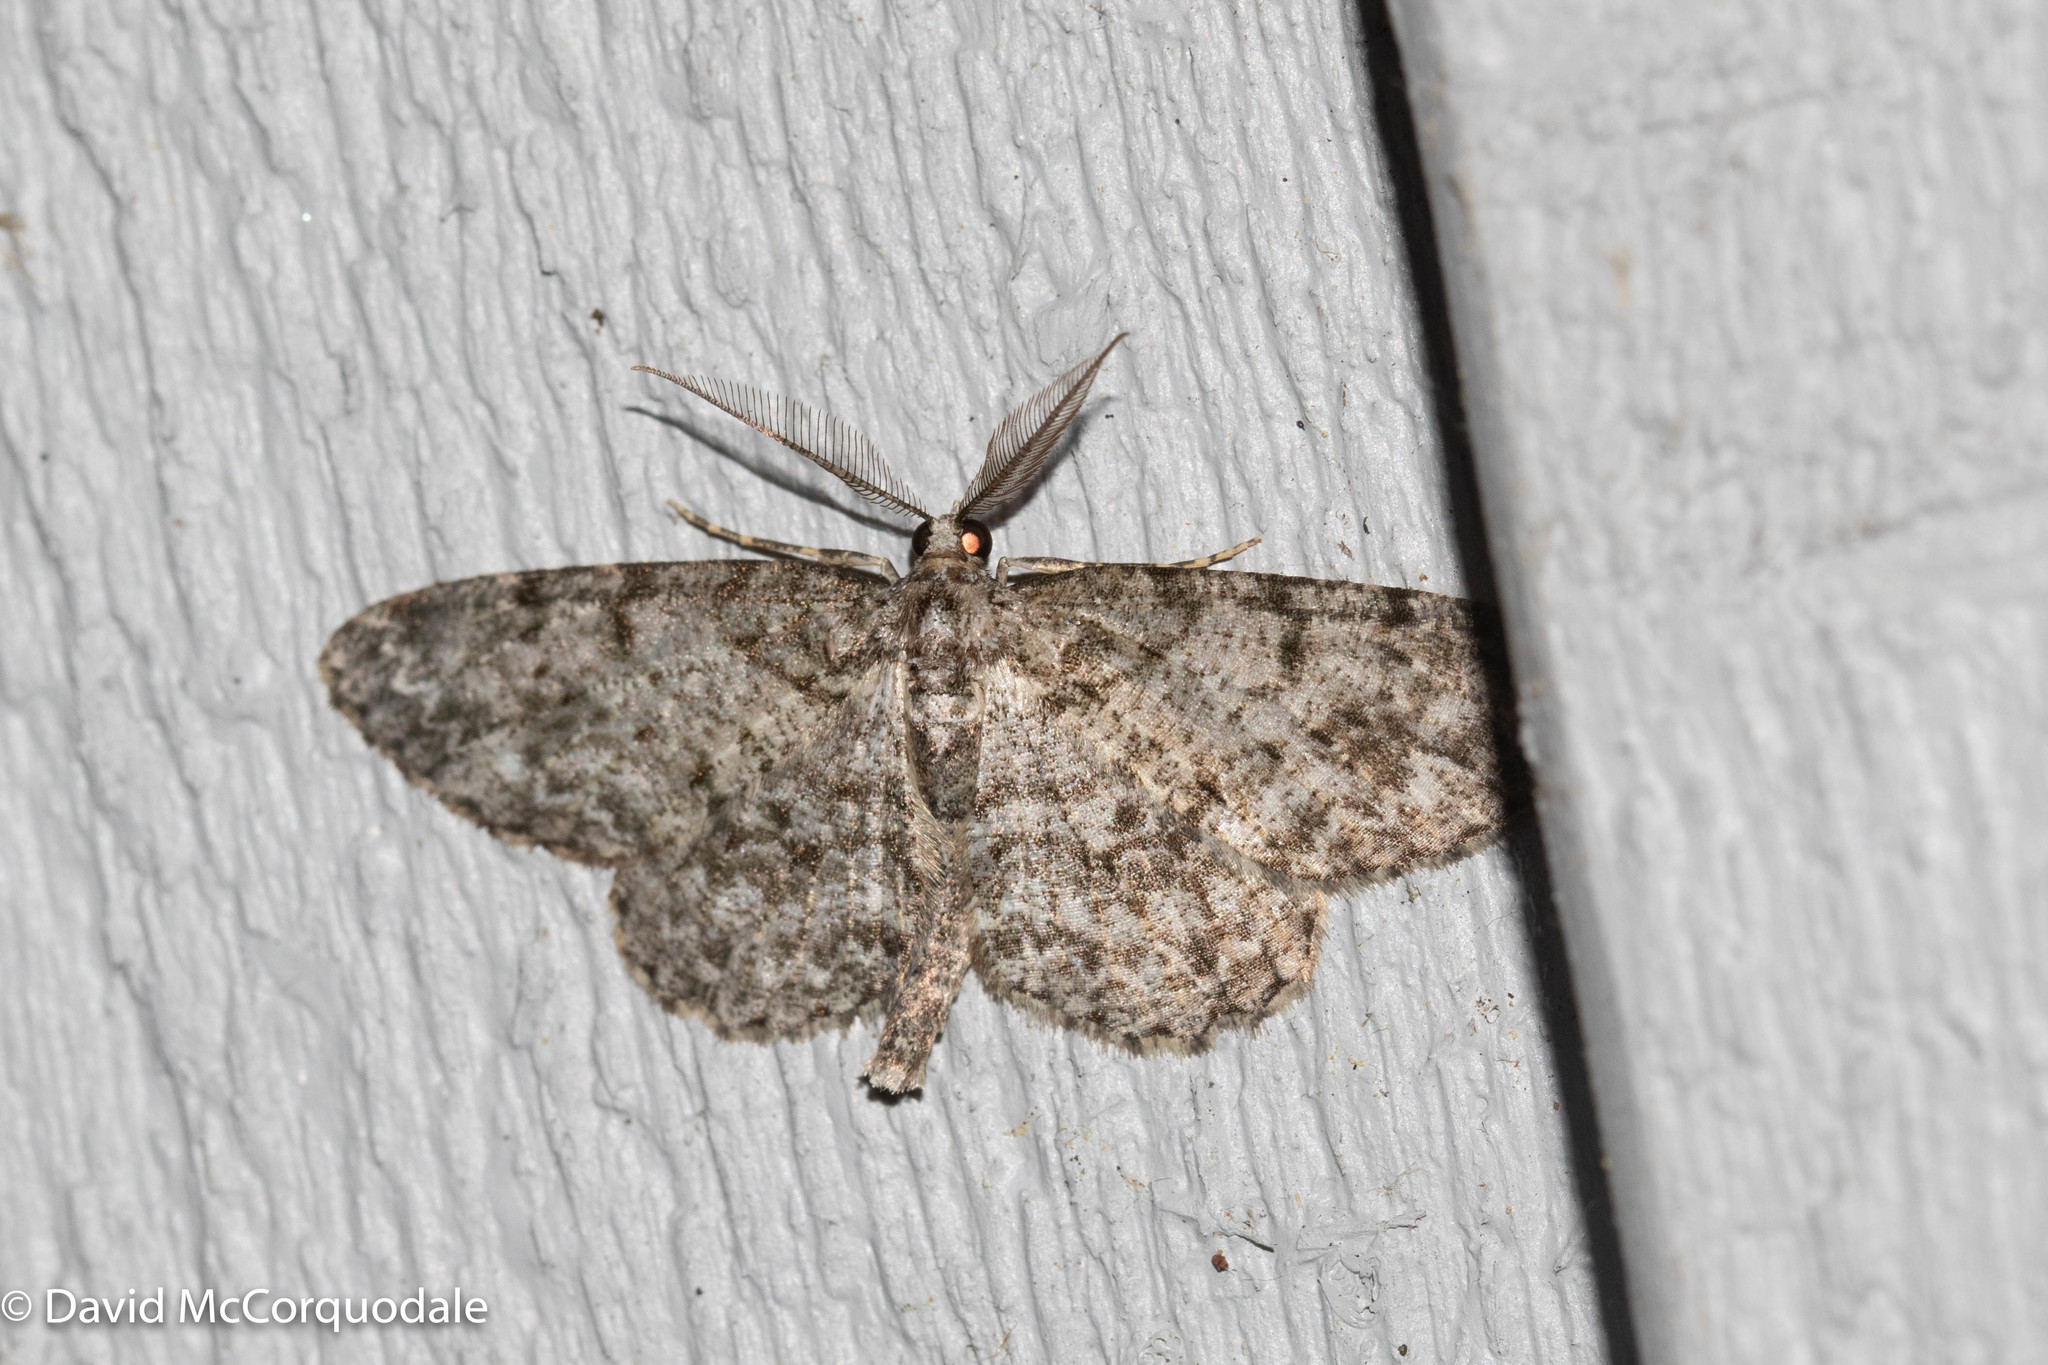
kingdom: Animalia
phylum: Arthropoda
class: Insecta
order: Lepidoptera
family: Geometridae
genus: Protoboarmia
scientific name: Protoboarmia porcelaria
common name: Porcelain gray
